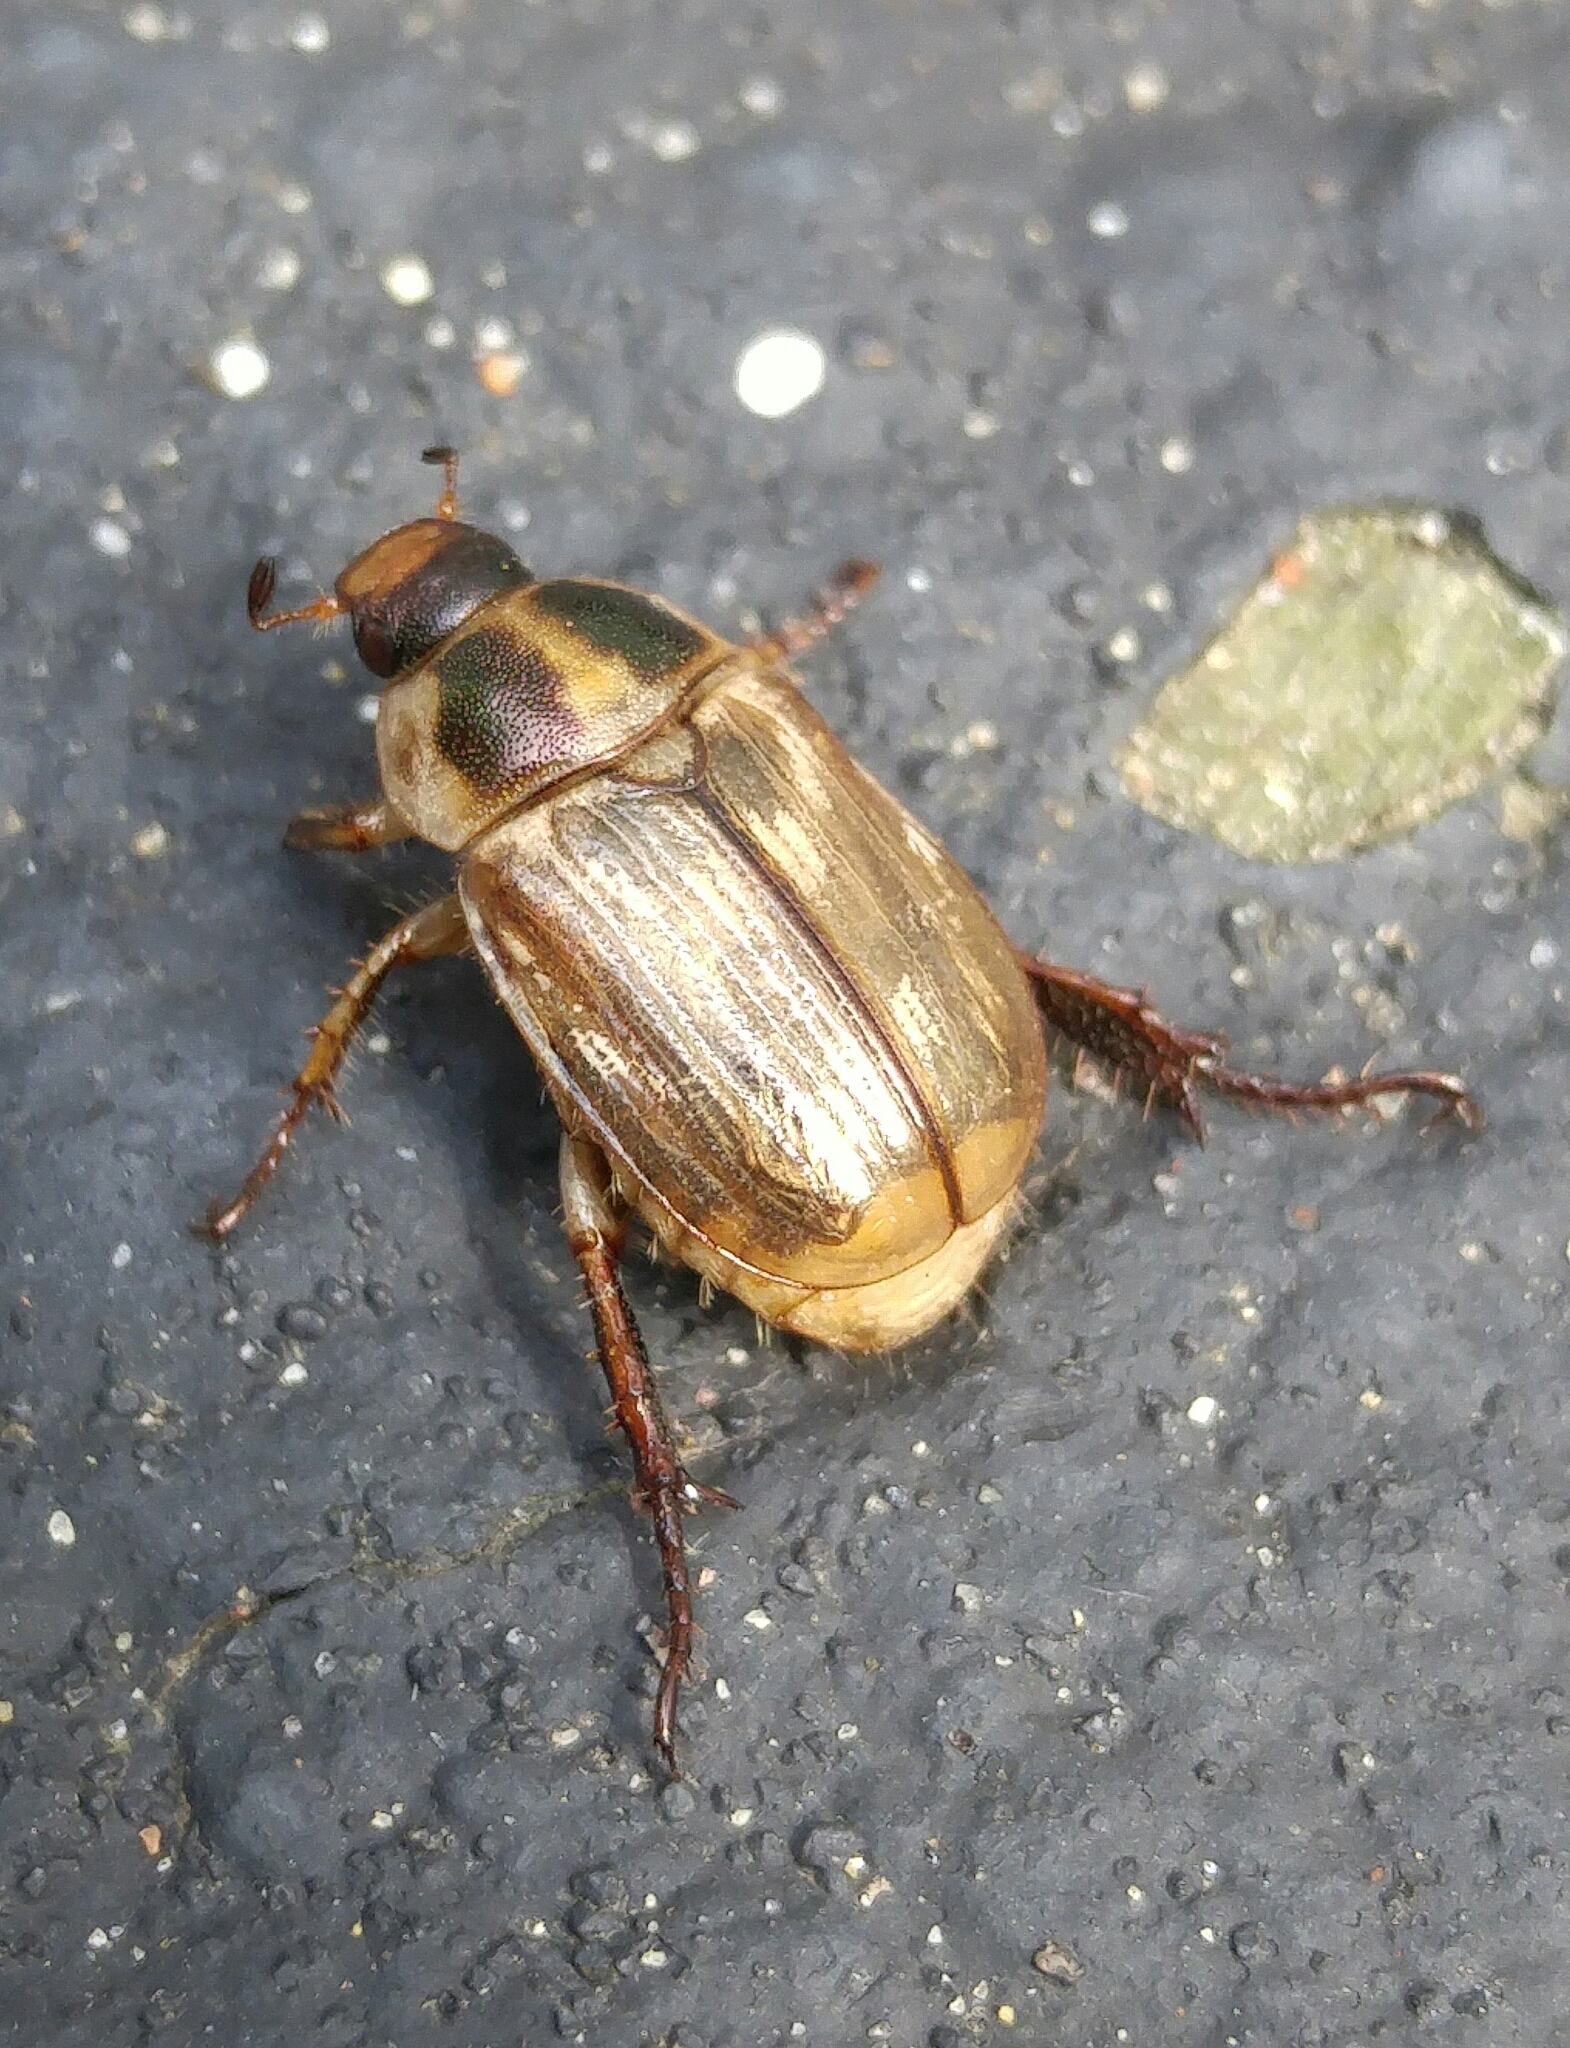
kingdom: Animalia
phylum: Arthropoda
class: Insecta
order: Coleoptera
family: Scarabaeidae
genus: Exomala
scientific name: Exomala orientalis
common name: Oriental beetle
